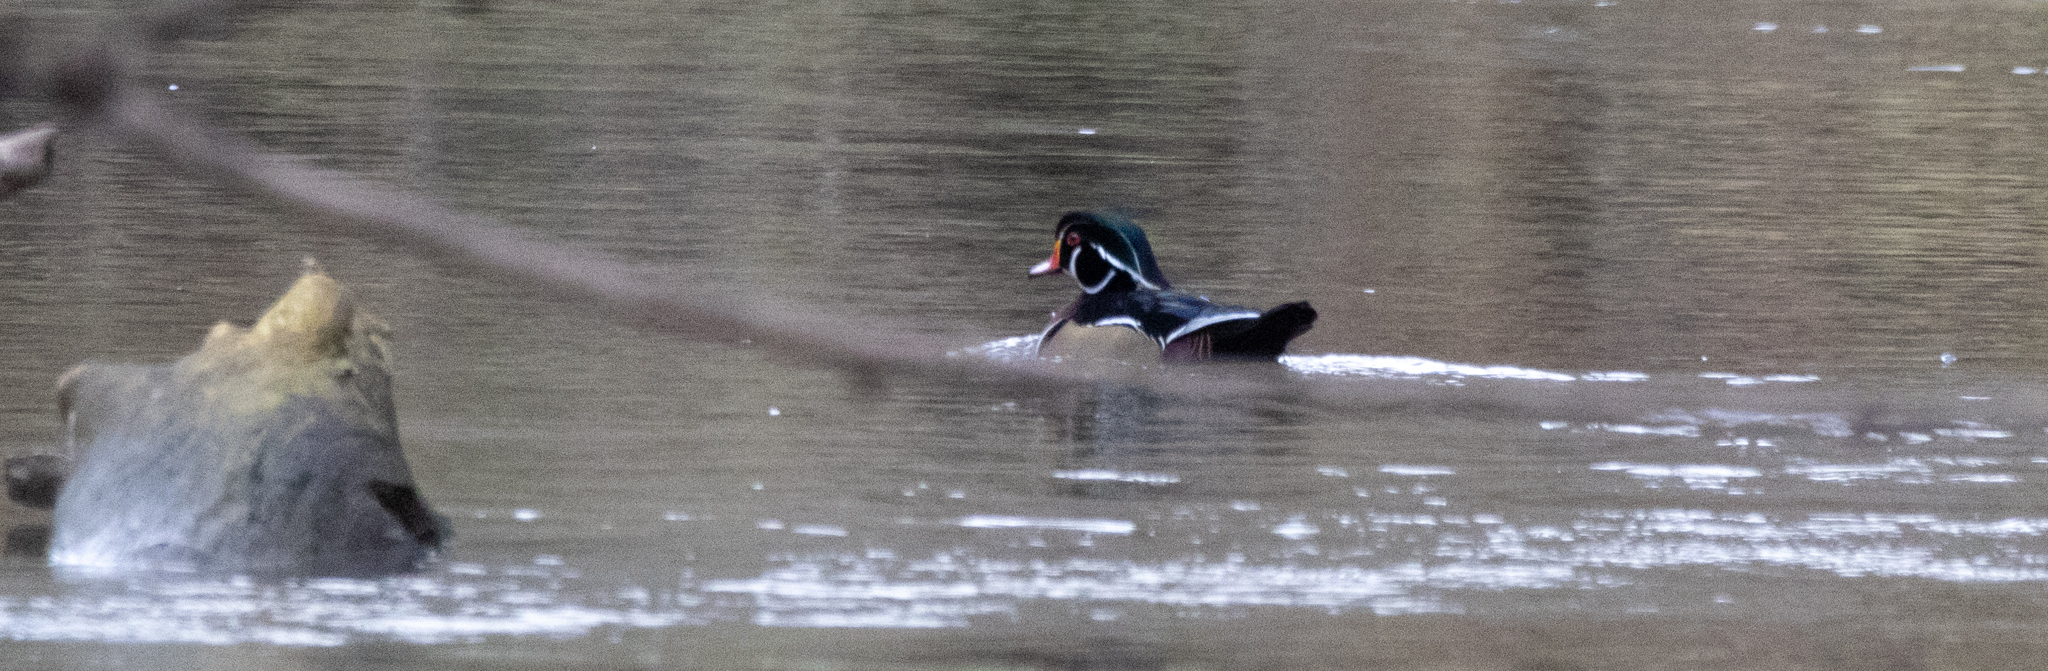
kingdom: Animalia
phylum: Chordata
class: Aves
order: Anseriformes
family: Anatidae
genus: Aix
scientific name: Aix sponsa
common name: Wood duck
